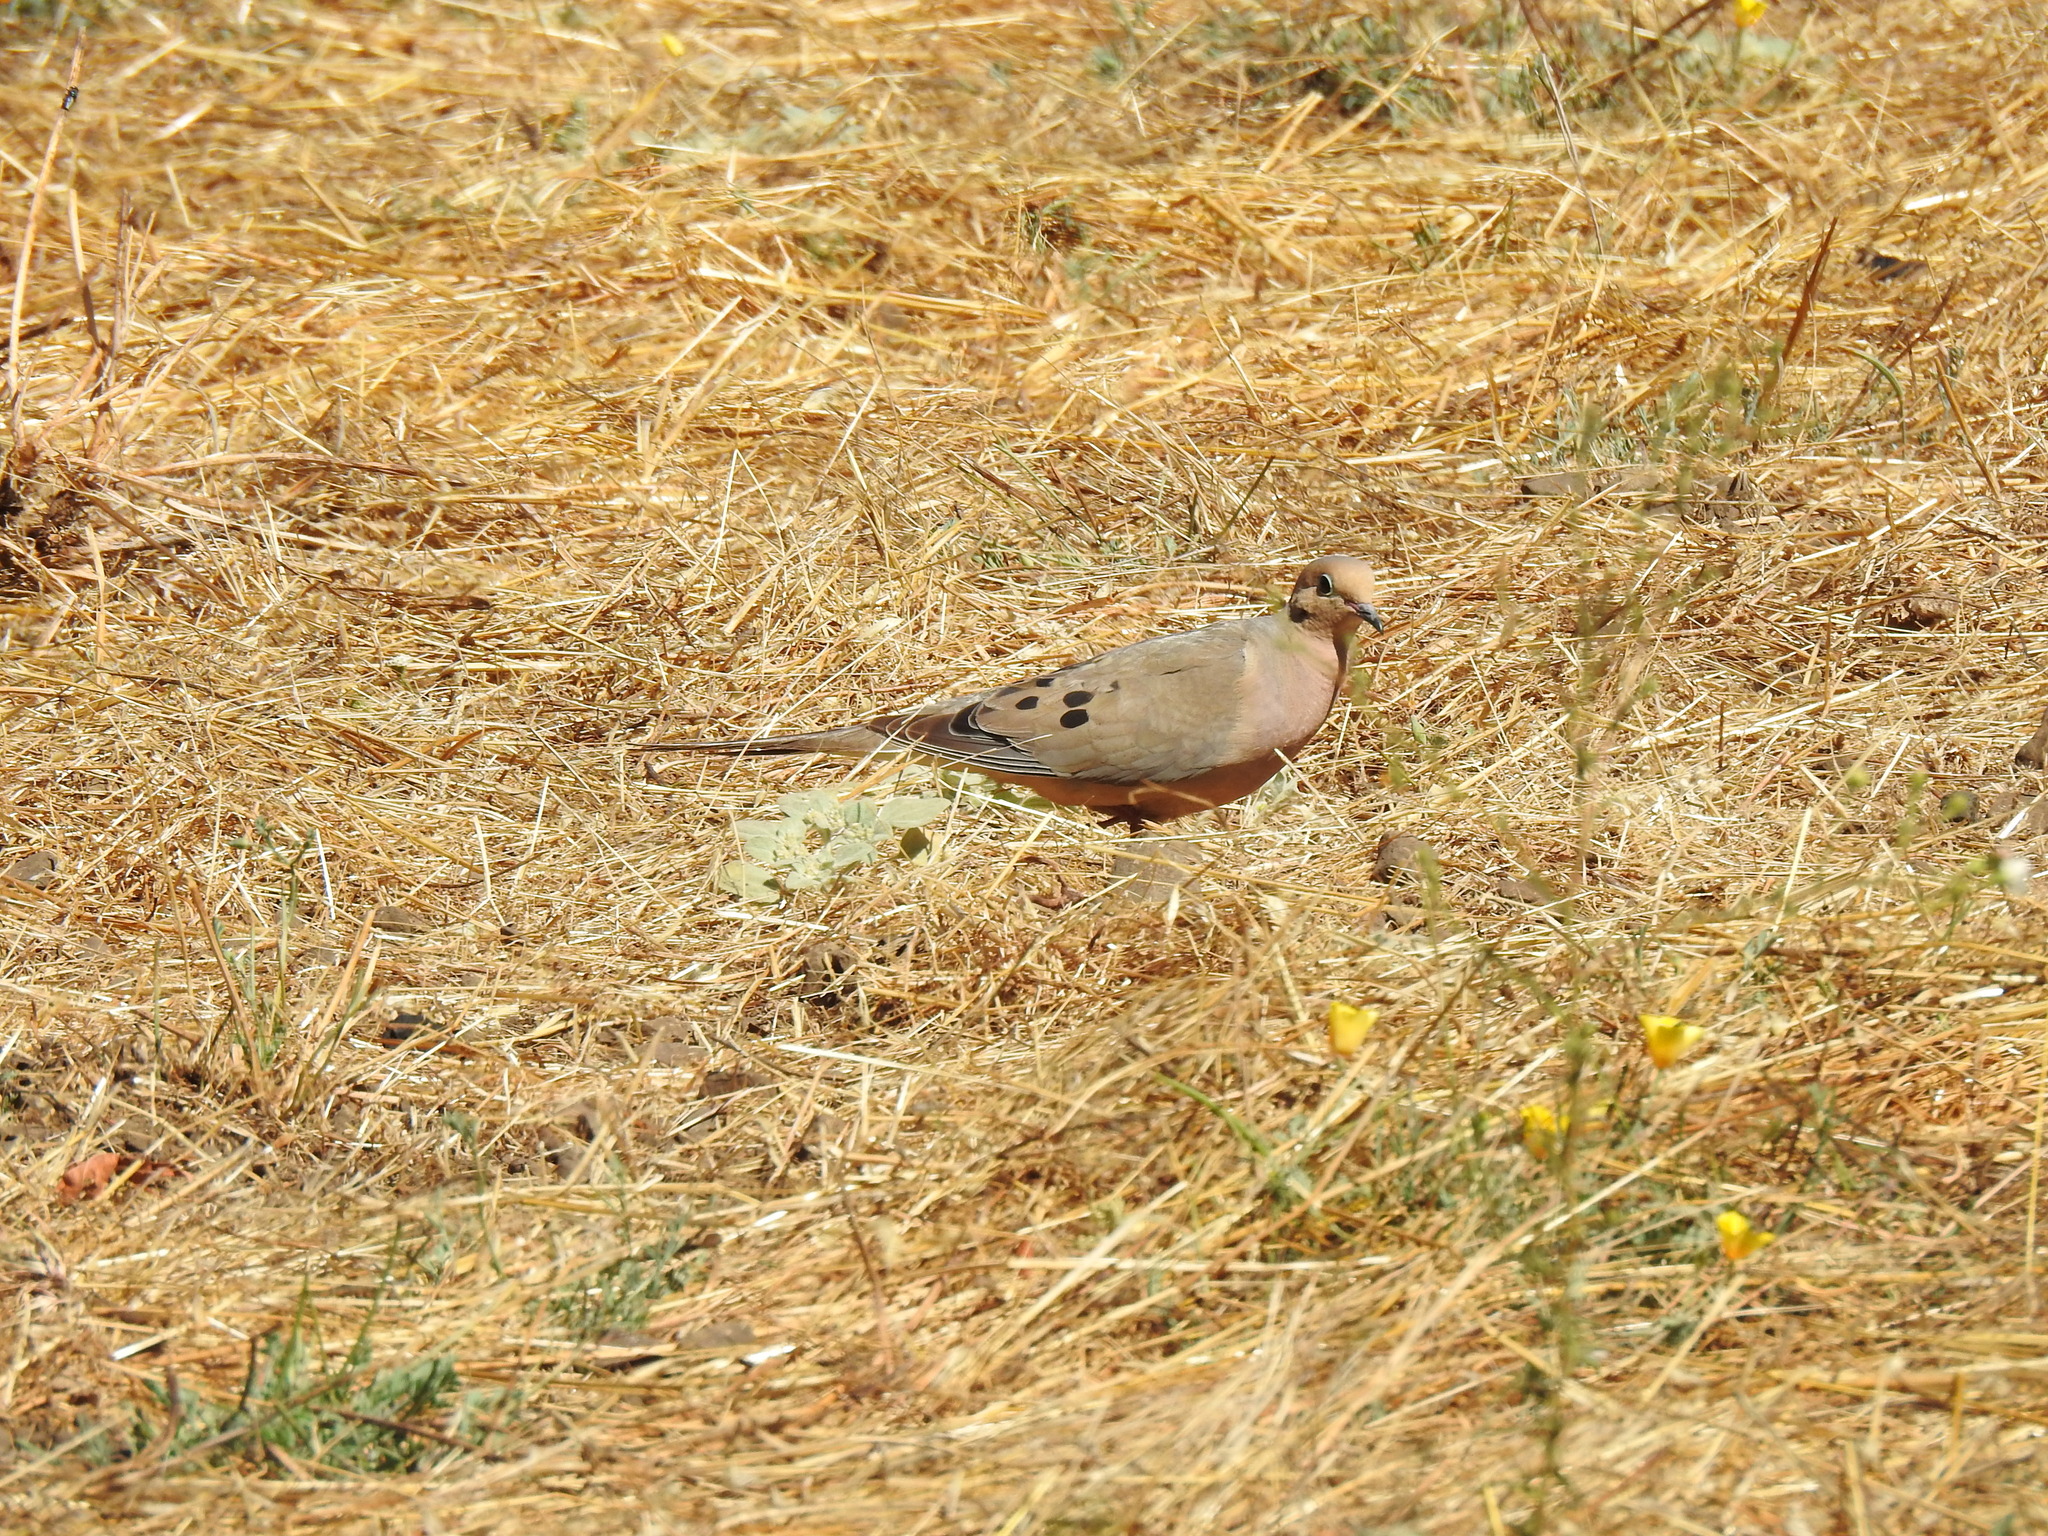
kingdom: Animalia
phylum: Chordata
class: Aves
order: Columbiformes
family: Columbidae
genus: Zenaida
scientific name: Zenaida macroura
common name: Mourning dove
